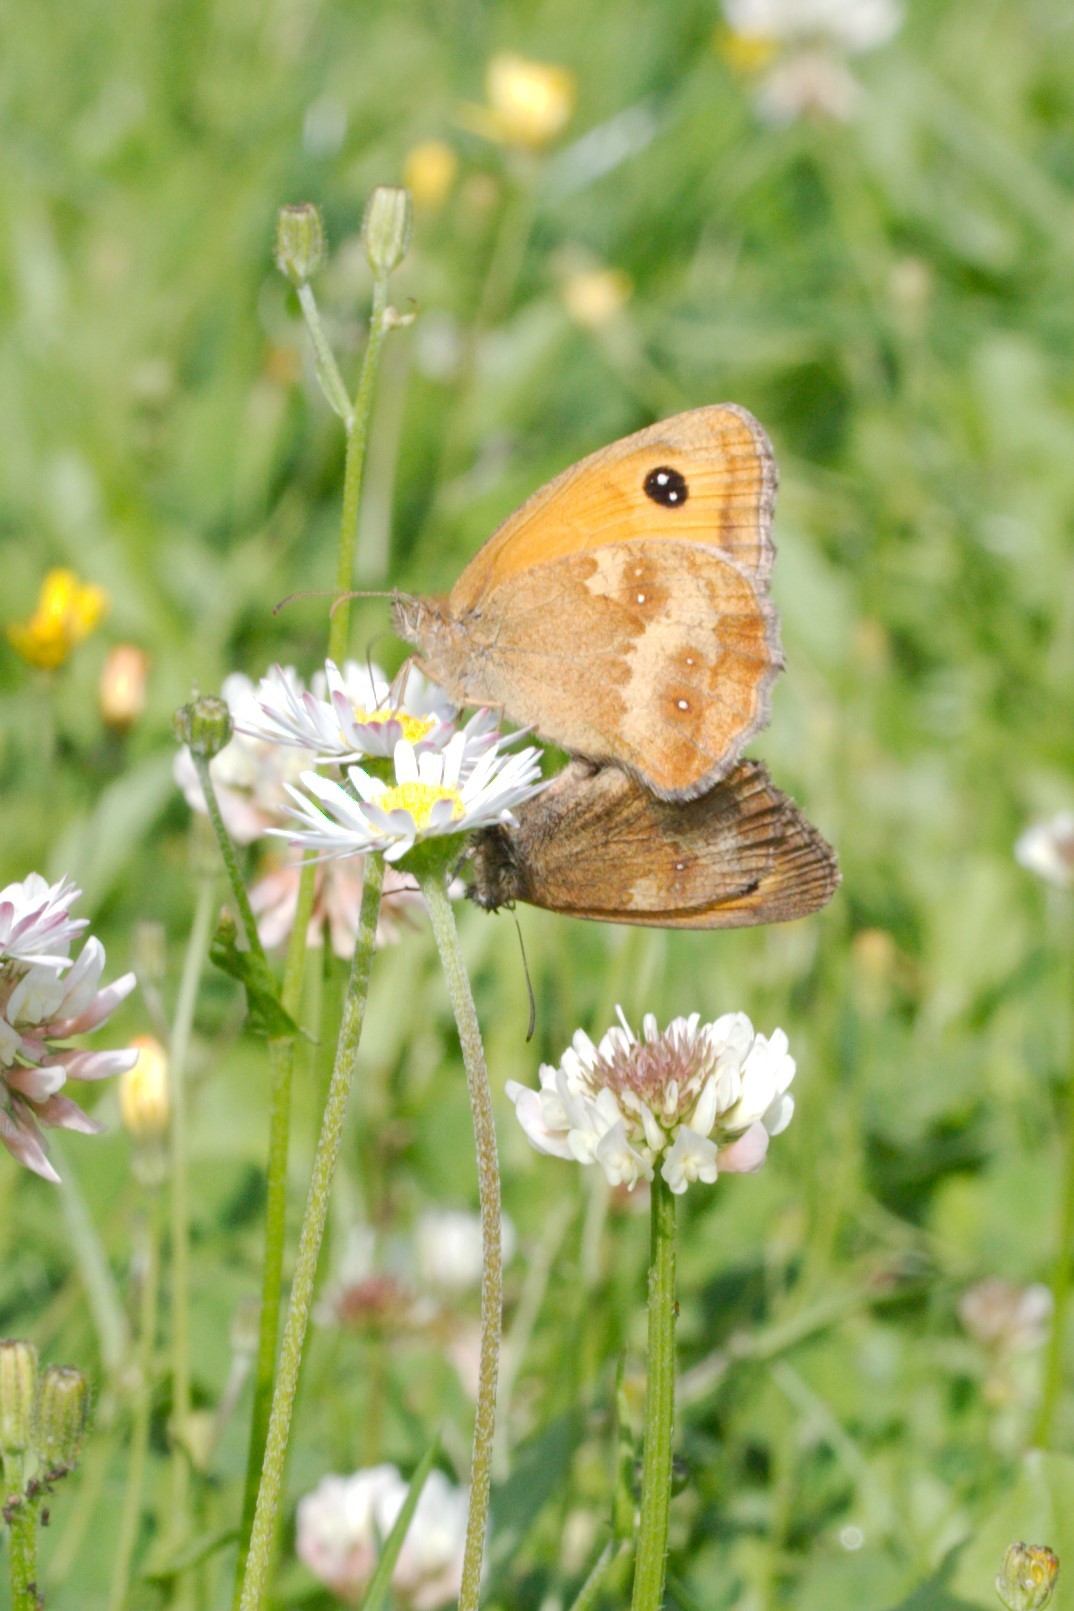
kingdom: Animalia
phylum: Arthropoda
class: Insecta
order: Lepidoptera
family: Nymphalidae
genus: Pyronia
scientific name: Pyronia tithonus
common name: Gatekeeper
